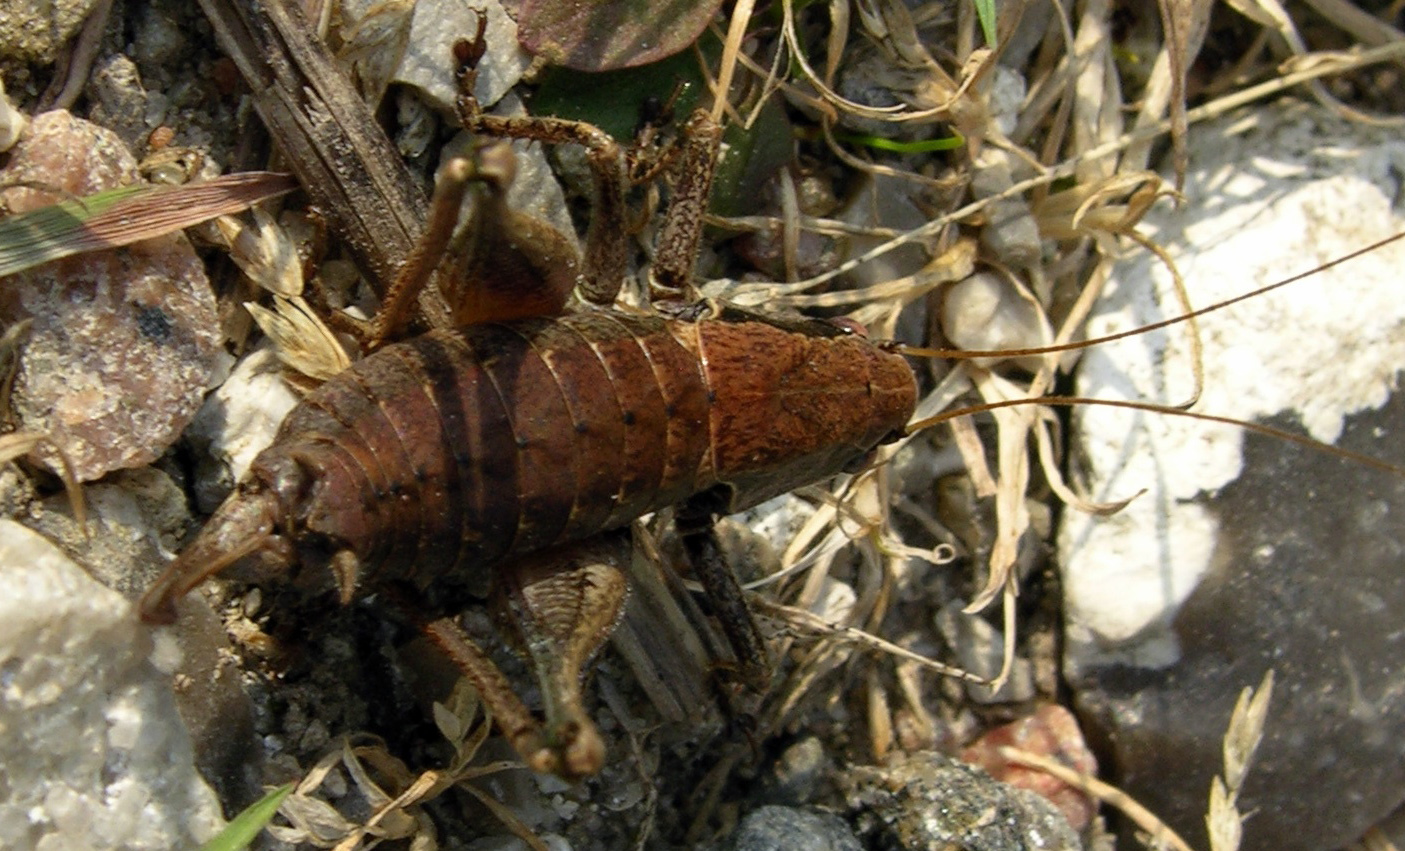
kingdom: Animalia
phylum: Arthropoda
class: Insecta
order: Orthoptera
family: Tettigoniidae
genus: Pholidoptera
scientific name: Pholidoptera griseoaptera
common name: Dark bush-cricket
